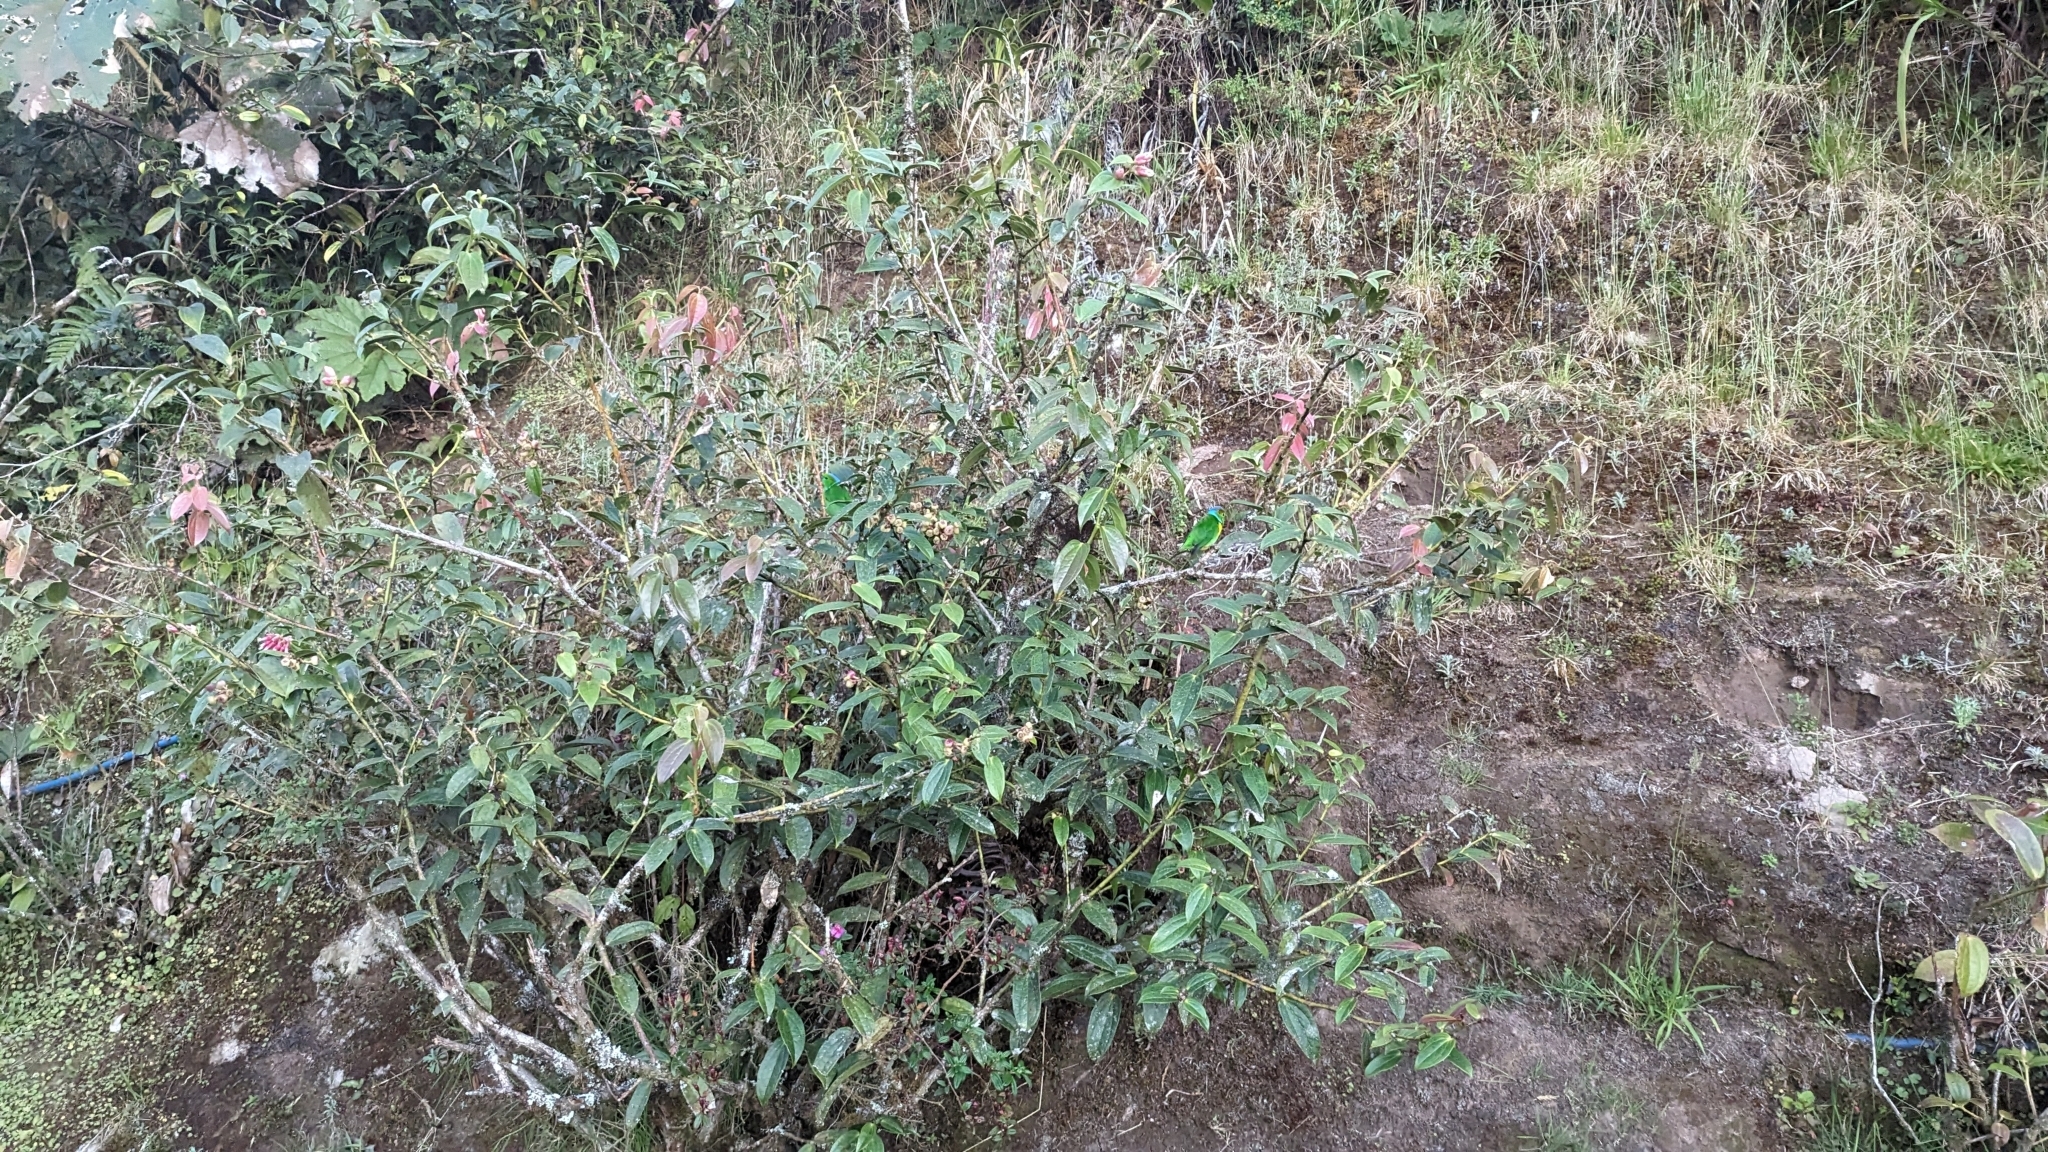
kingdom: Animalia
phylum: Chordata
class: Aves
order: Passeriformes
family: Fringillidae
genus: Chlorophonia
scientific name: Chlorophonia callophrys
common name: Golden-browed chlorophonia
